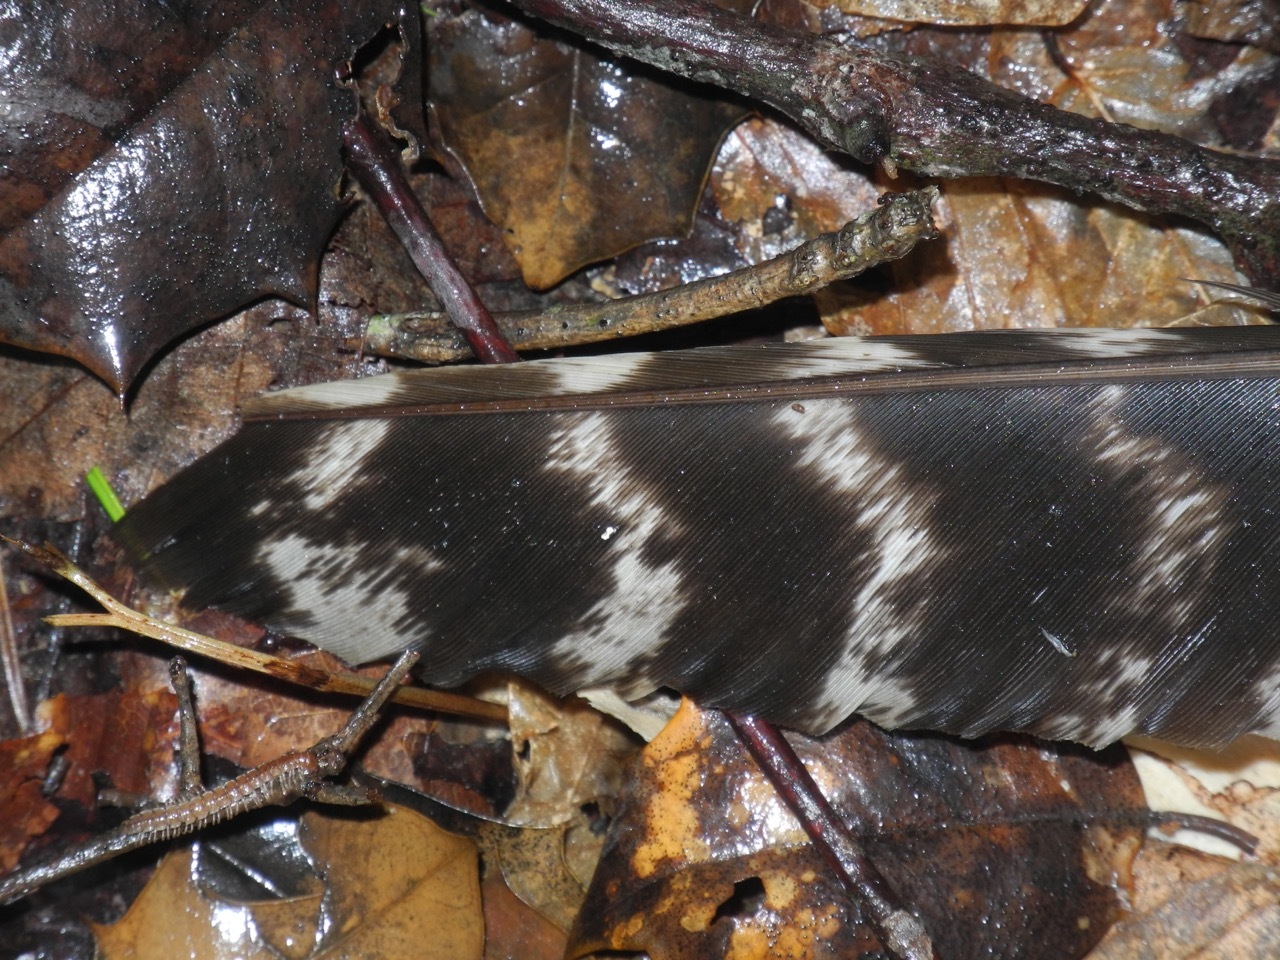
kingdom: Animalia
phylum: Chordata
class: Aves
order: Galliformes
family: Phasianidae
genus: Meleagris
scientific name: Meleagris gallopavo
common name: Wild turkey
